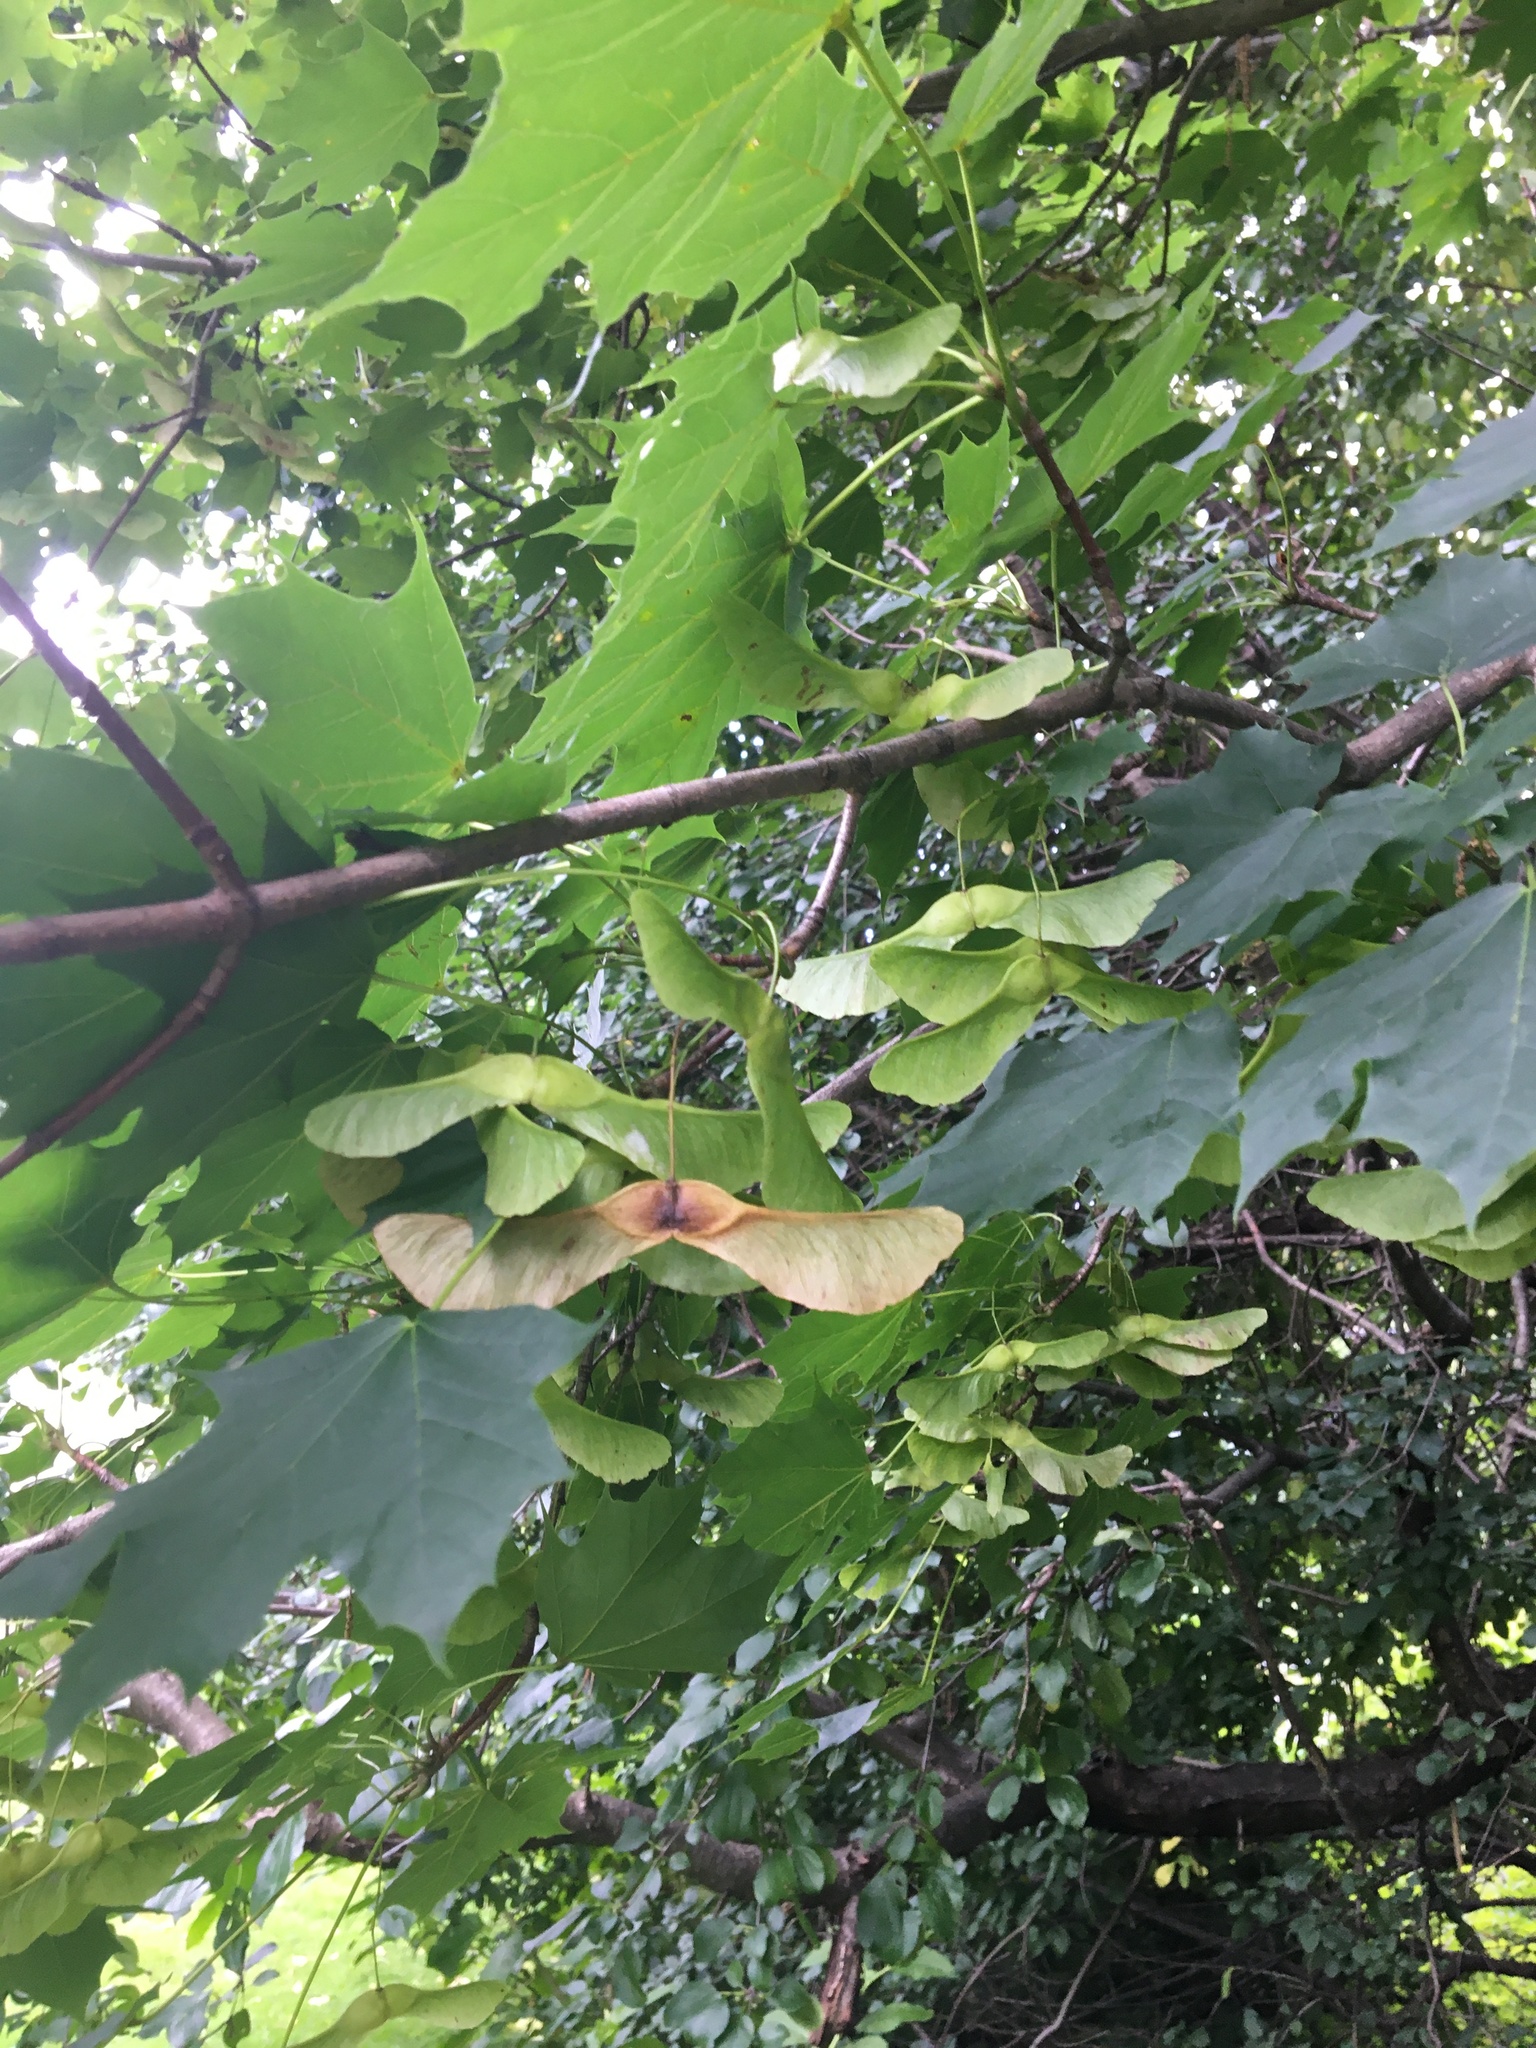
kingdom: Plantae
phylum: Tracheophyta
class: Magnoliopsida
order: Sapindales
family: Sapindaceae
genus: Acer
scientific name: Acer platanoides
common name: Norway maple
